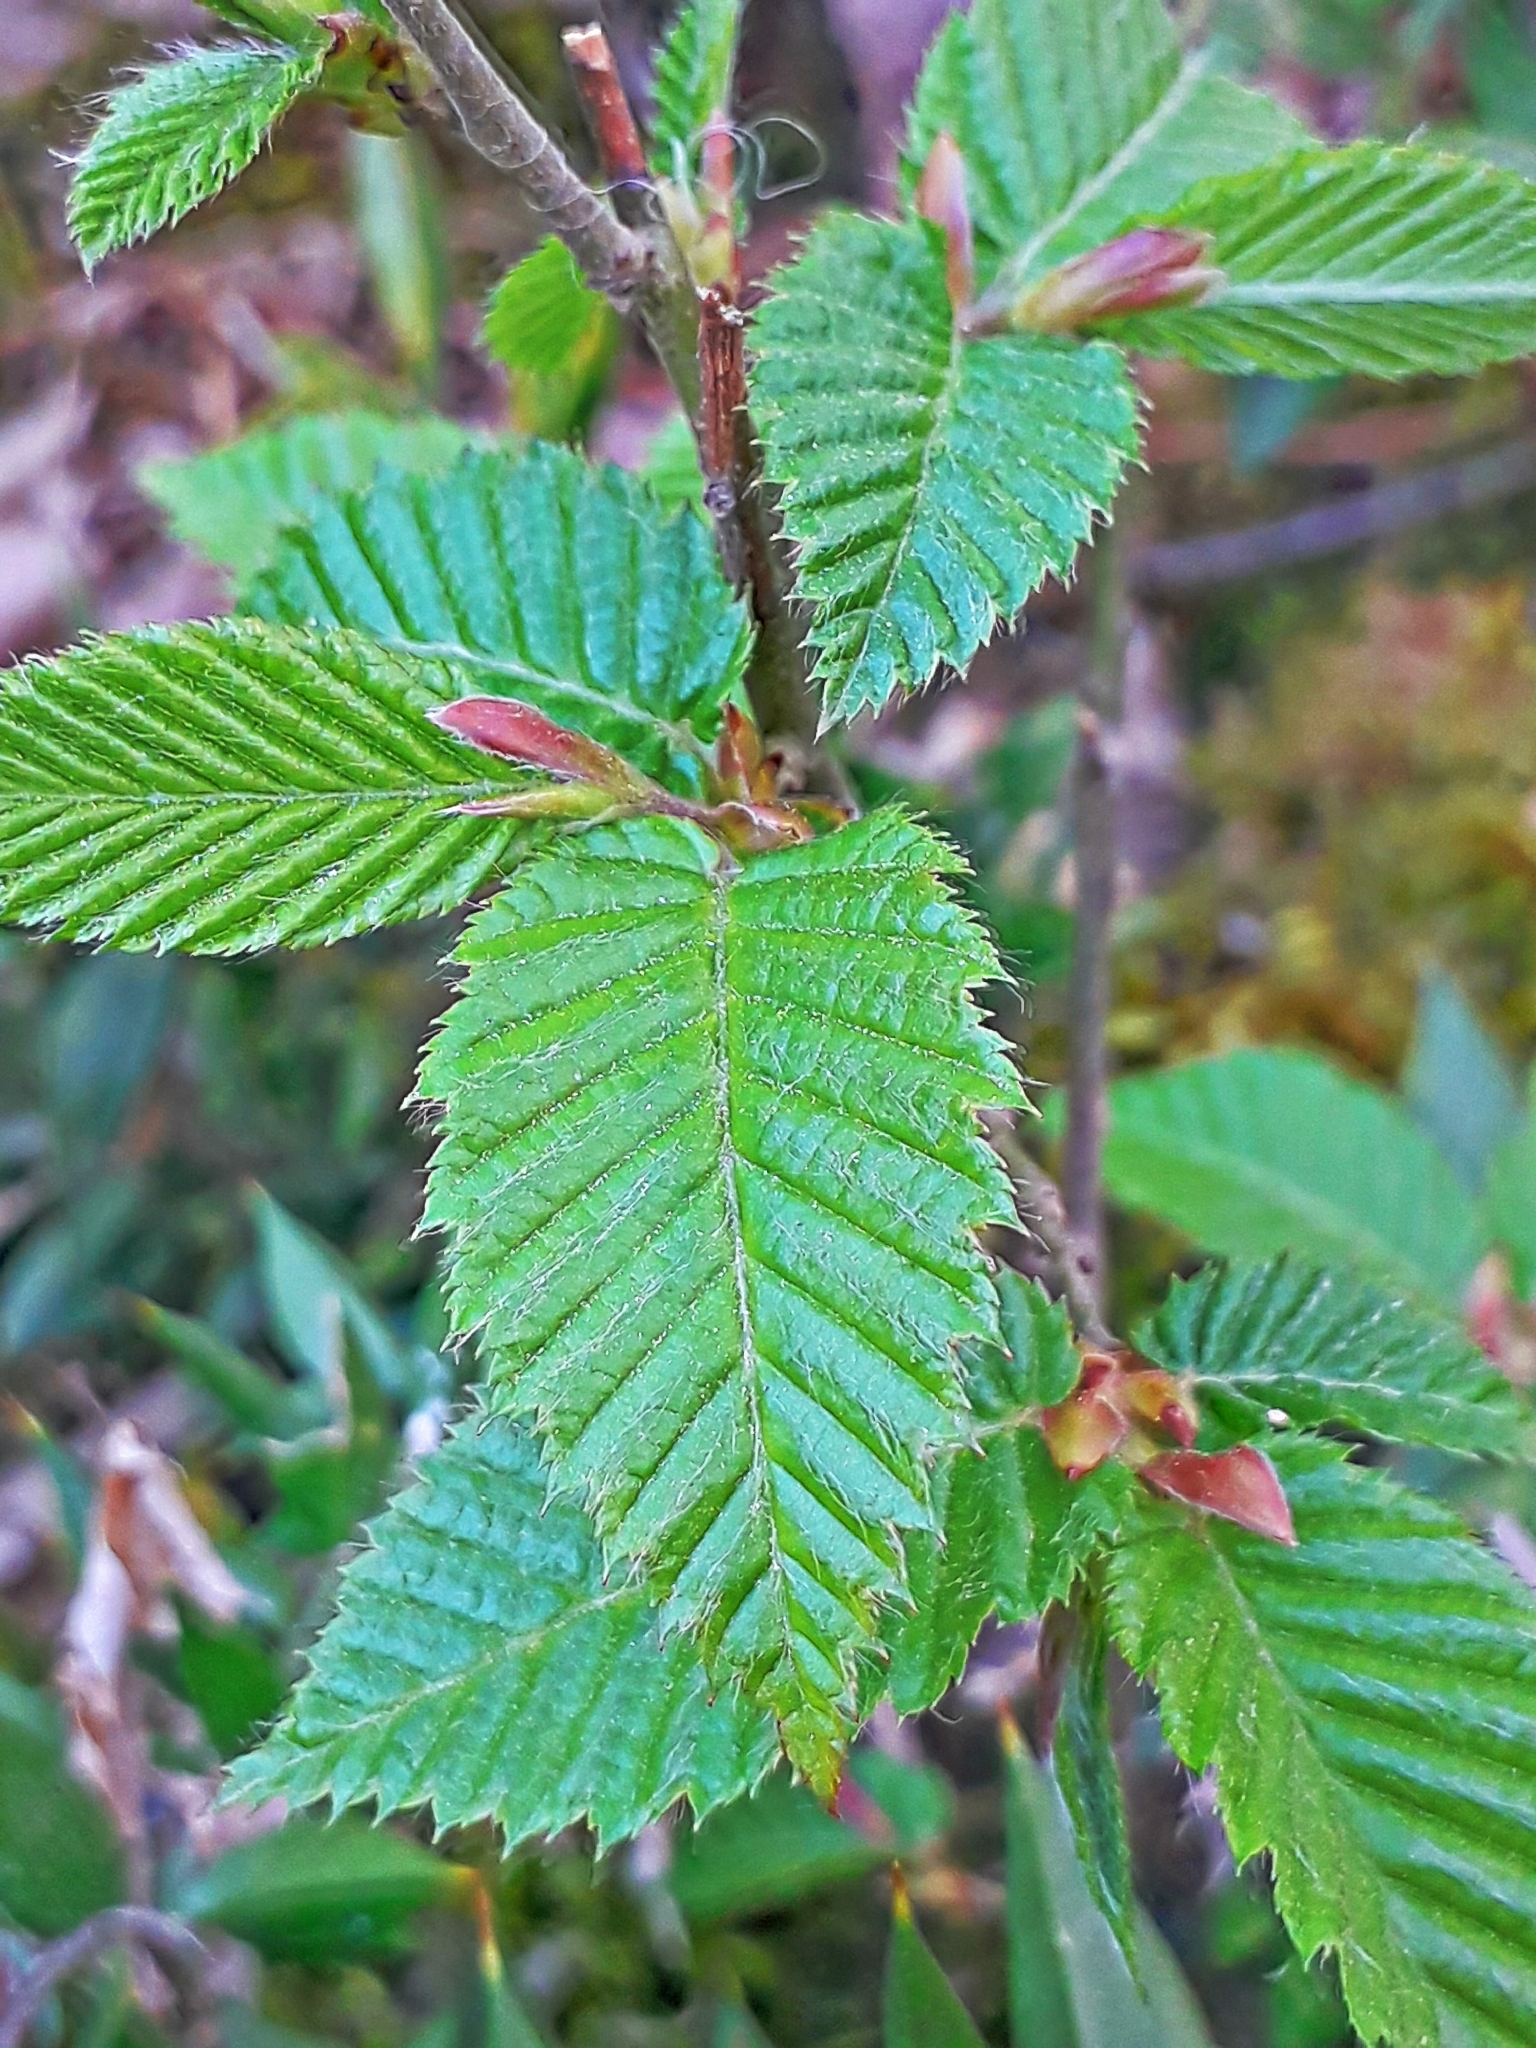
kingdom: Plantae
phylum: Tracheophyta
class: Magnoliopsida
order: Fagales
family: Betulaceae
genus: Carpinus
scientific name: Carpinus betulus
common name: Hornbeam
